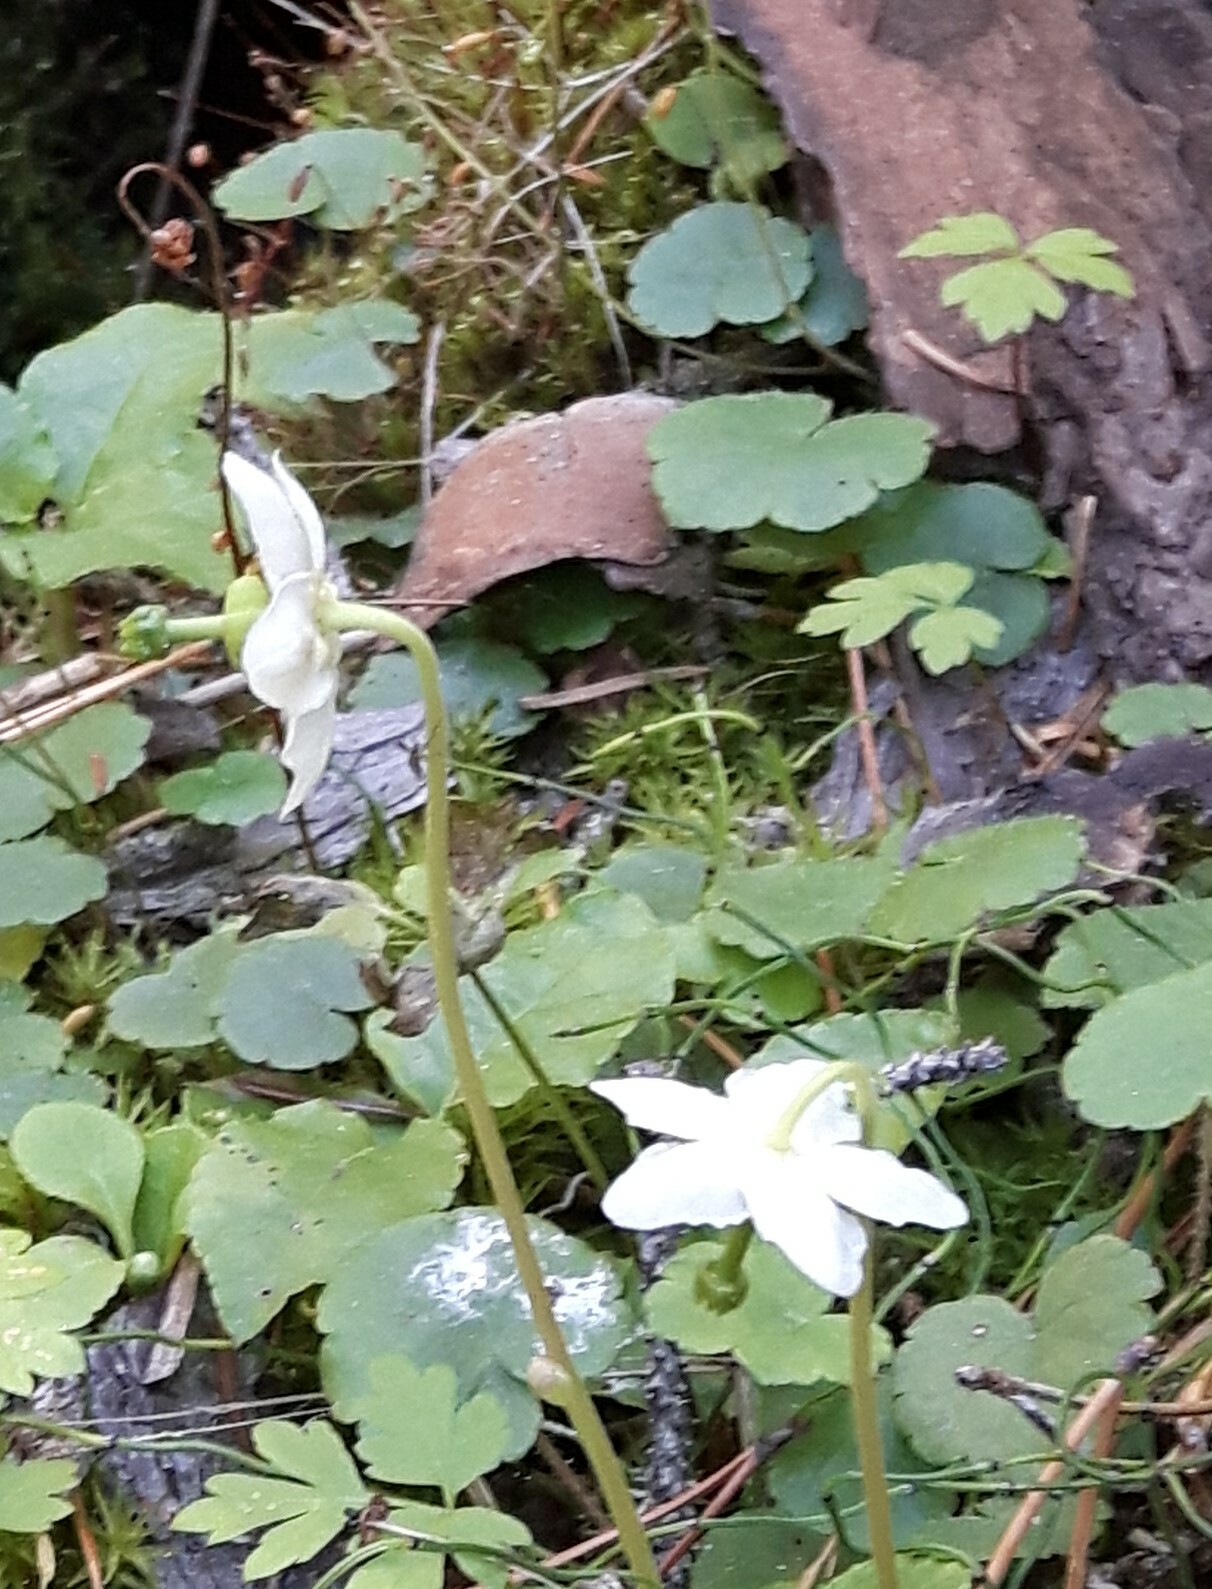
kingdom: Plantae
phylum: Tracheophyta
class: Magnoliopsida
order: Ericales
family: Ericaceae
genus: Moneses
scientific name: Moneses uniflora
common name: One-flowered wintergreen
